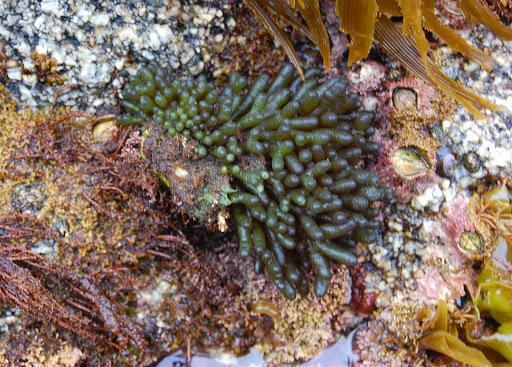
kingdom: Plantae
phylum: Chlorophyta
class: Ulvophyceae
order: Bryopsidales
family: Codiaceae
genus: Codium
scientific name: Codium fragile
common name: Dead man's fingers
